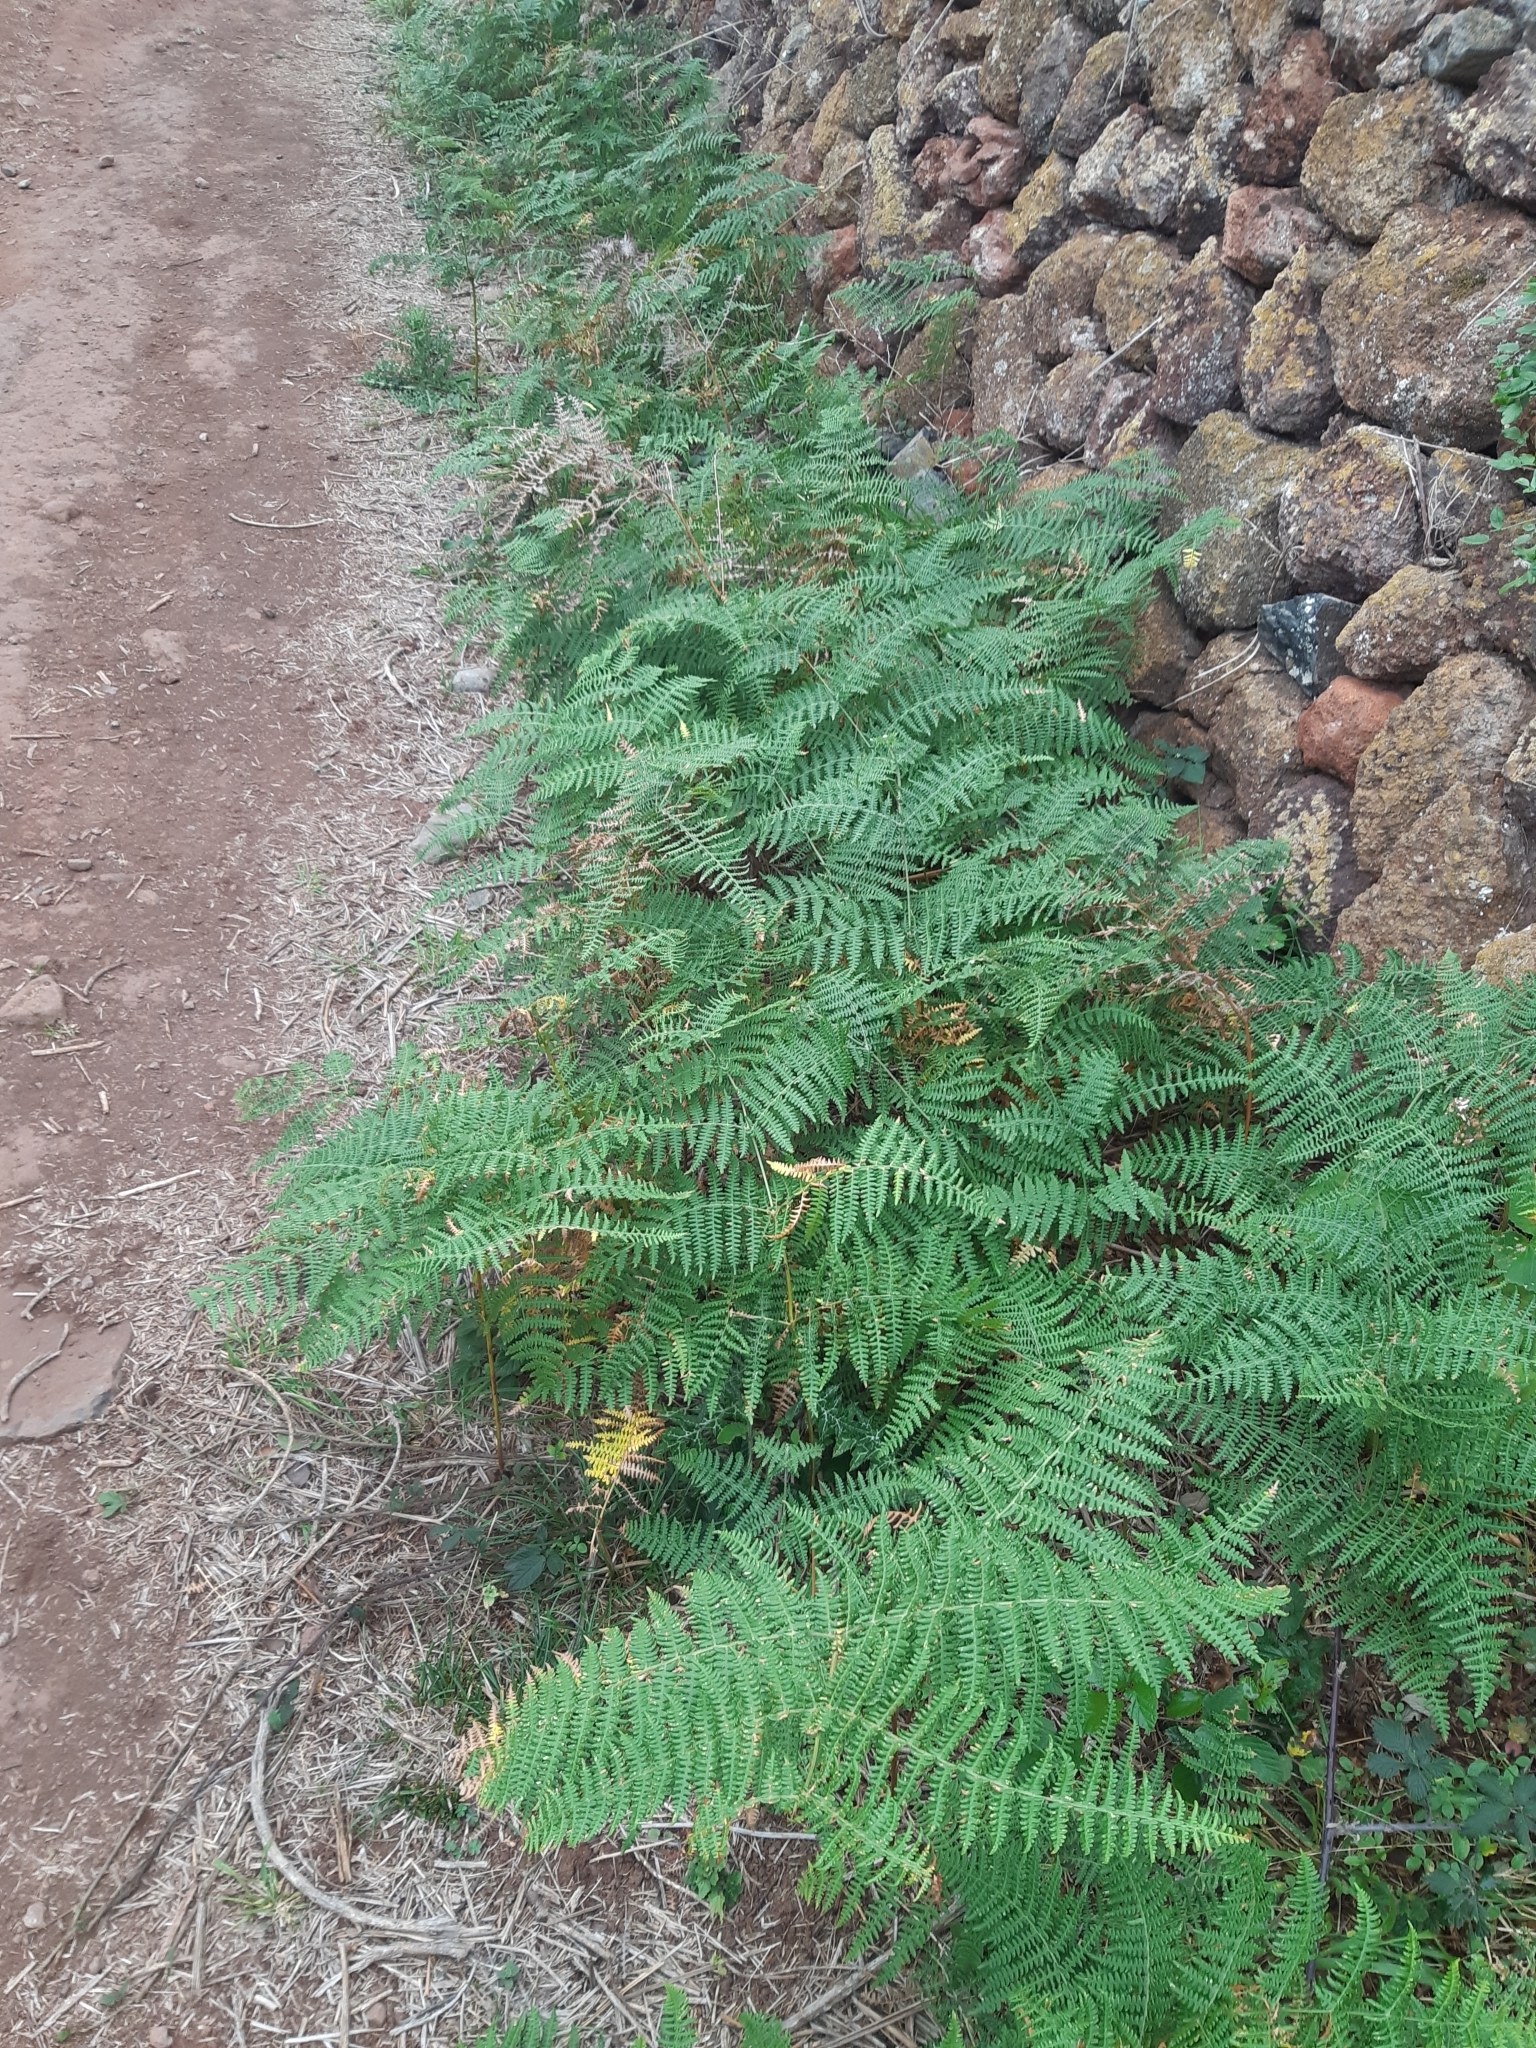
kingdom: Plantae
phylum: Tracheophyta
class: Polypodiopsida
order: Polypodiales
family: Dennstaedtiaceae
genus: Pteridium
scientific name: Pteridium aquilinum
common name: Bracken
